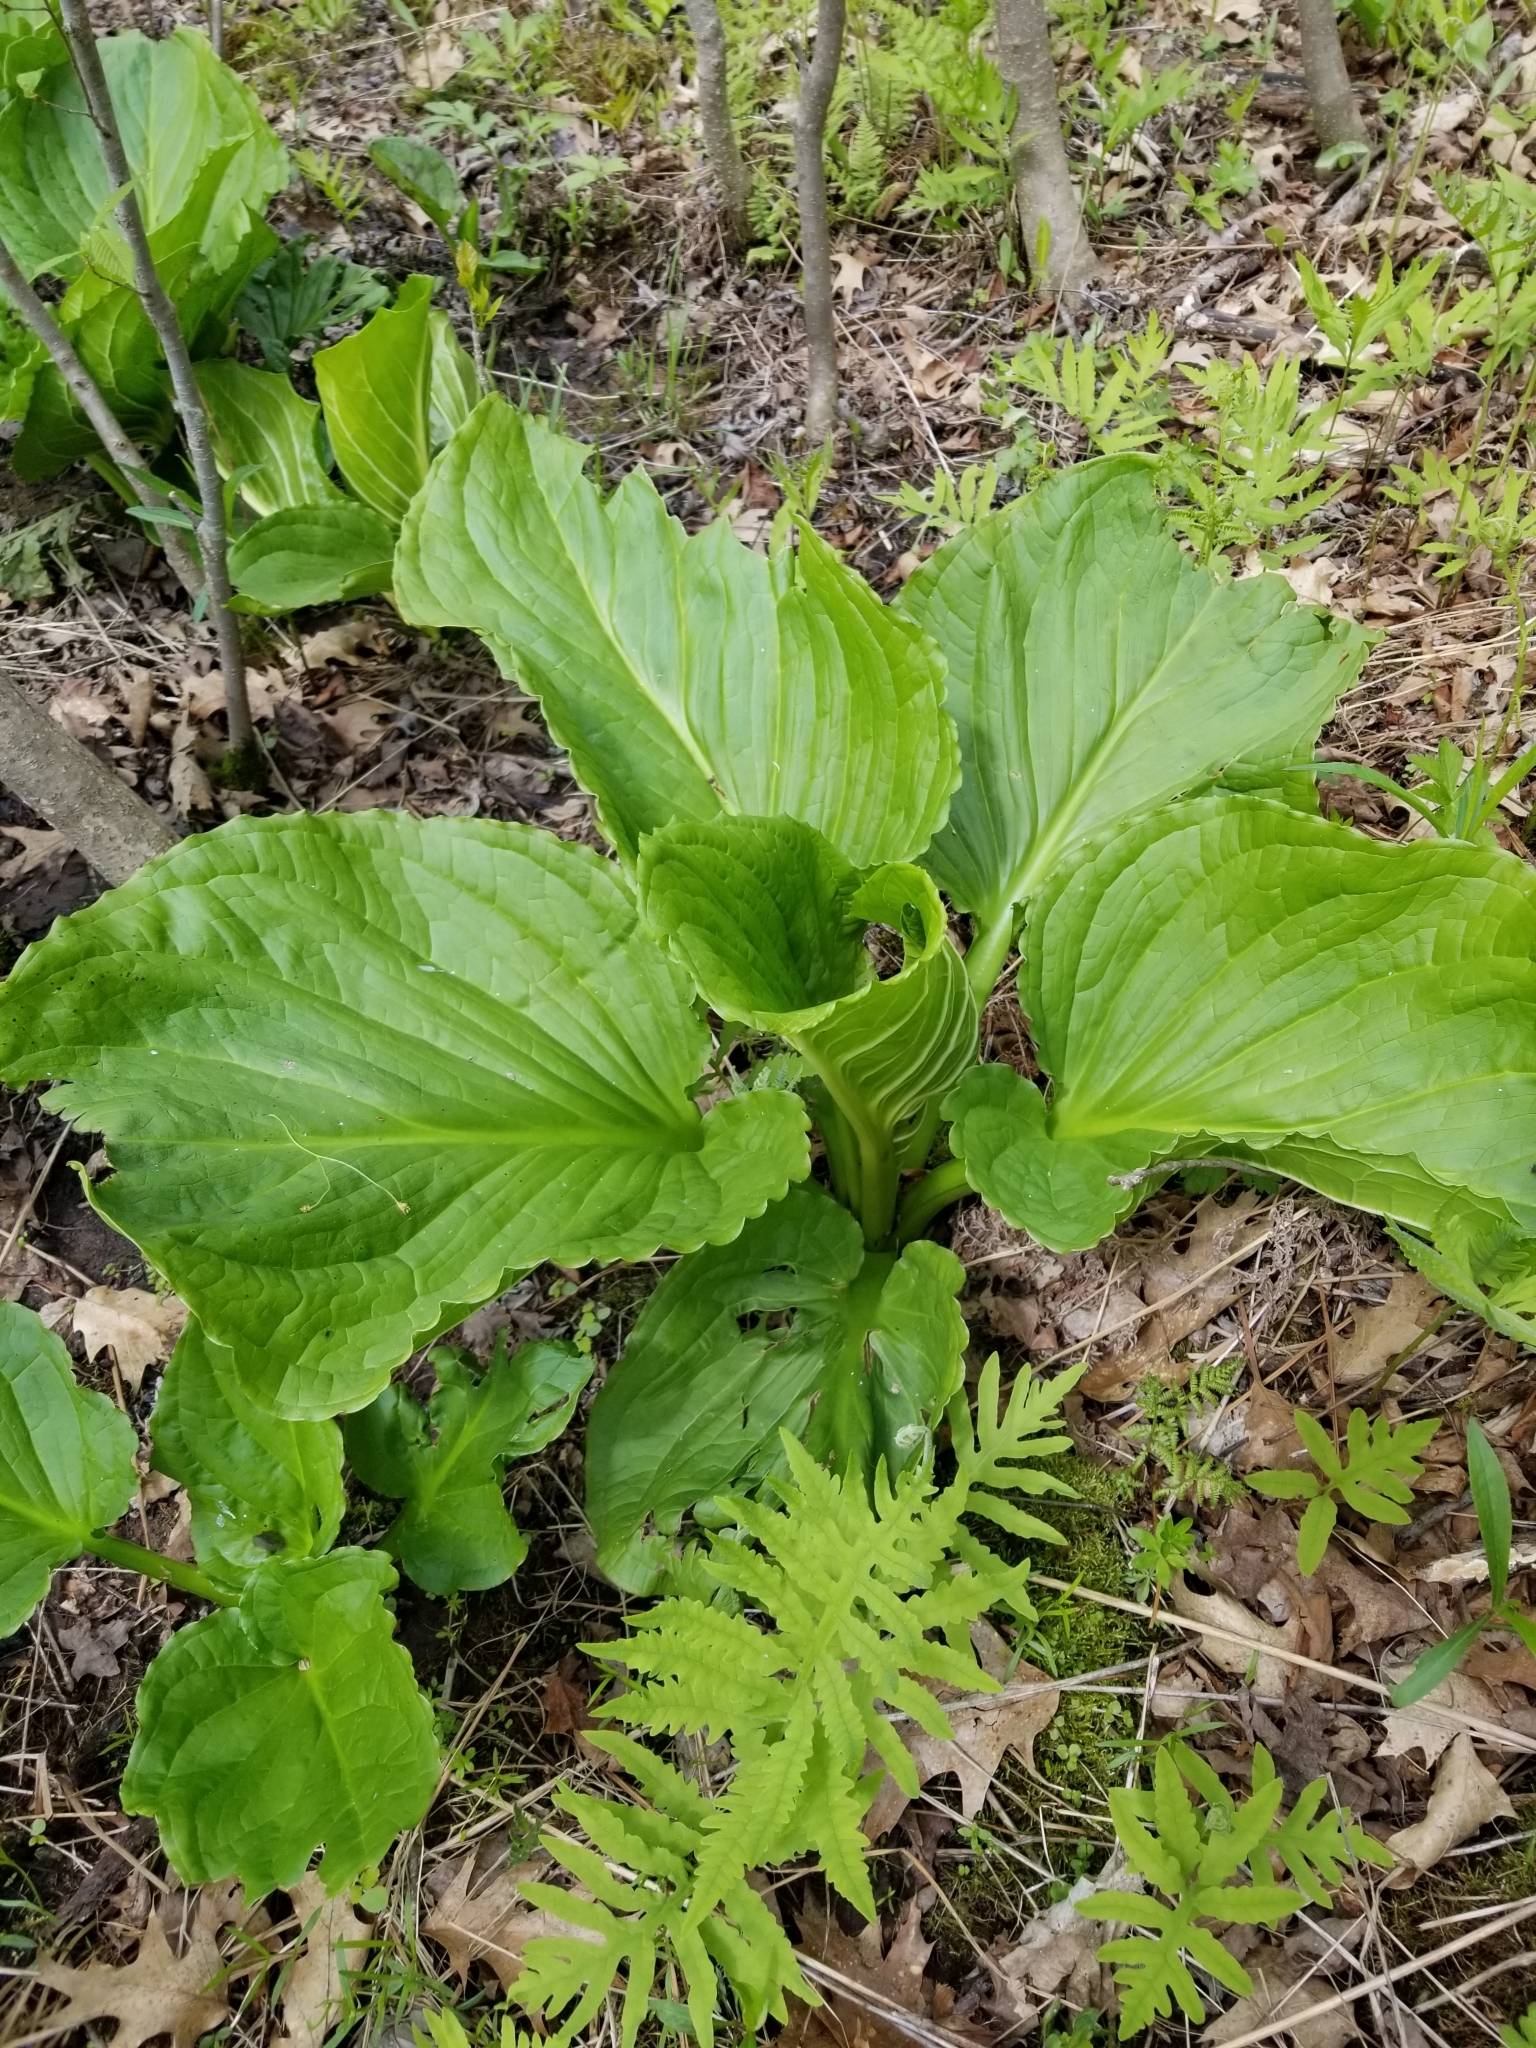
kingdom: Plantae
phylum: Tracheophyta
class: Liliopsida
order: Alismatales
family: Araceae
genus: Symplocarpus
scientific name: Symplocarpus foetidus
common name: Eastern skunk cabbage
